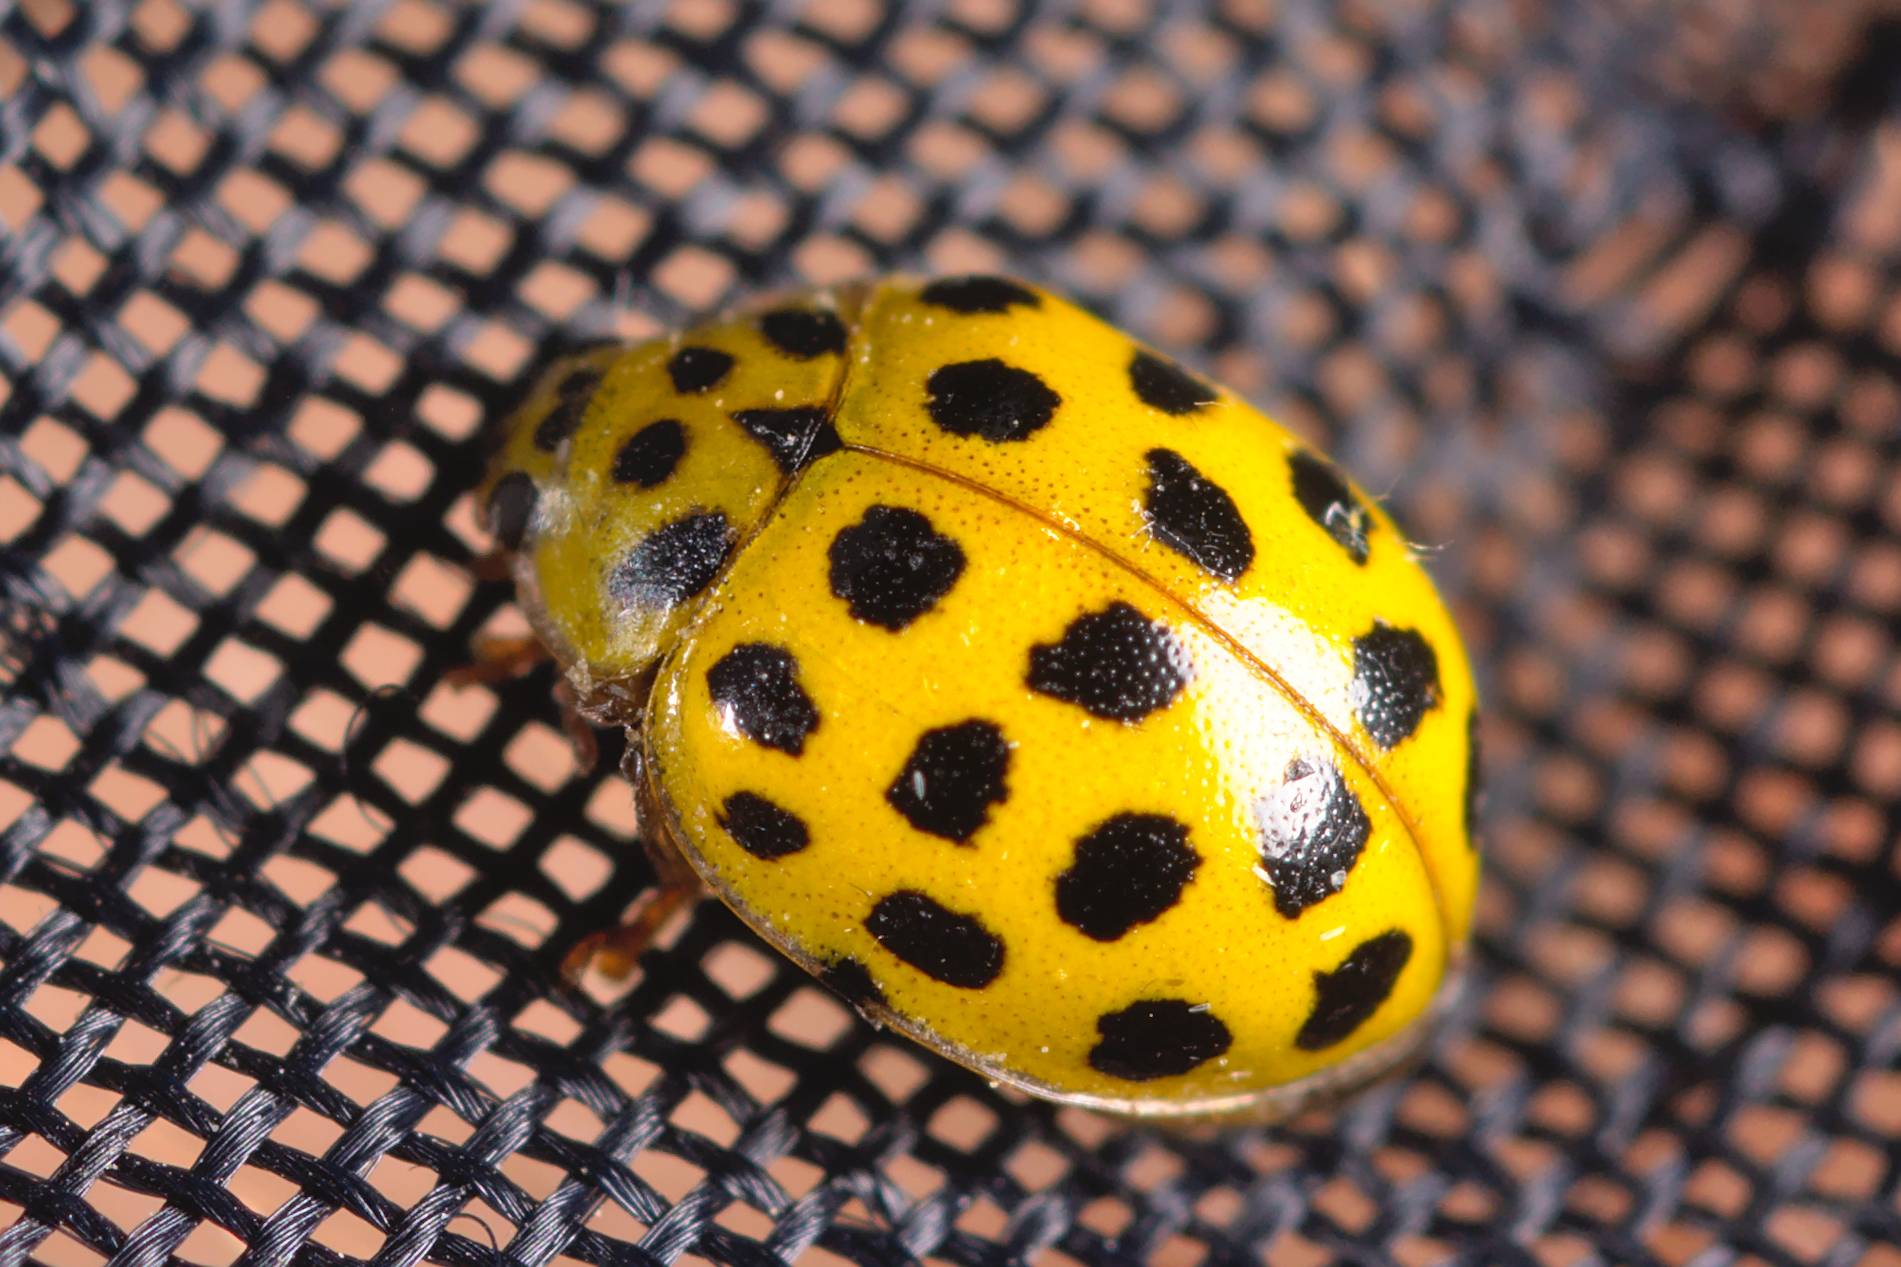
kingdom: Animalia
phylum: Arthropoda
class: Insecta
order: Coleoptera
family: Coccinellidae
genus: Psyllobora
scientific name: Psyllobora vigintiduopunctata
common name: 22-spot ladybird
